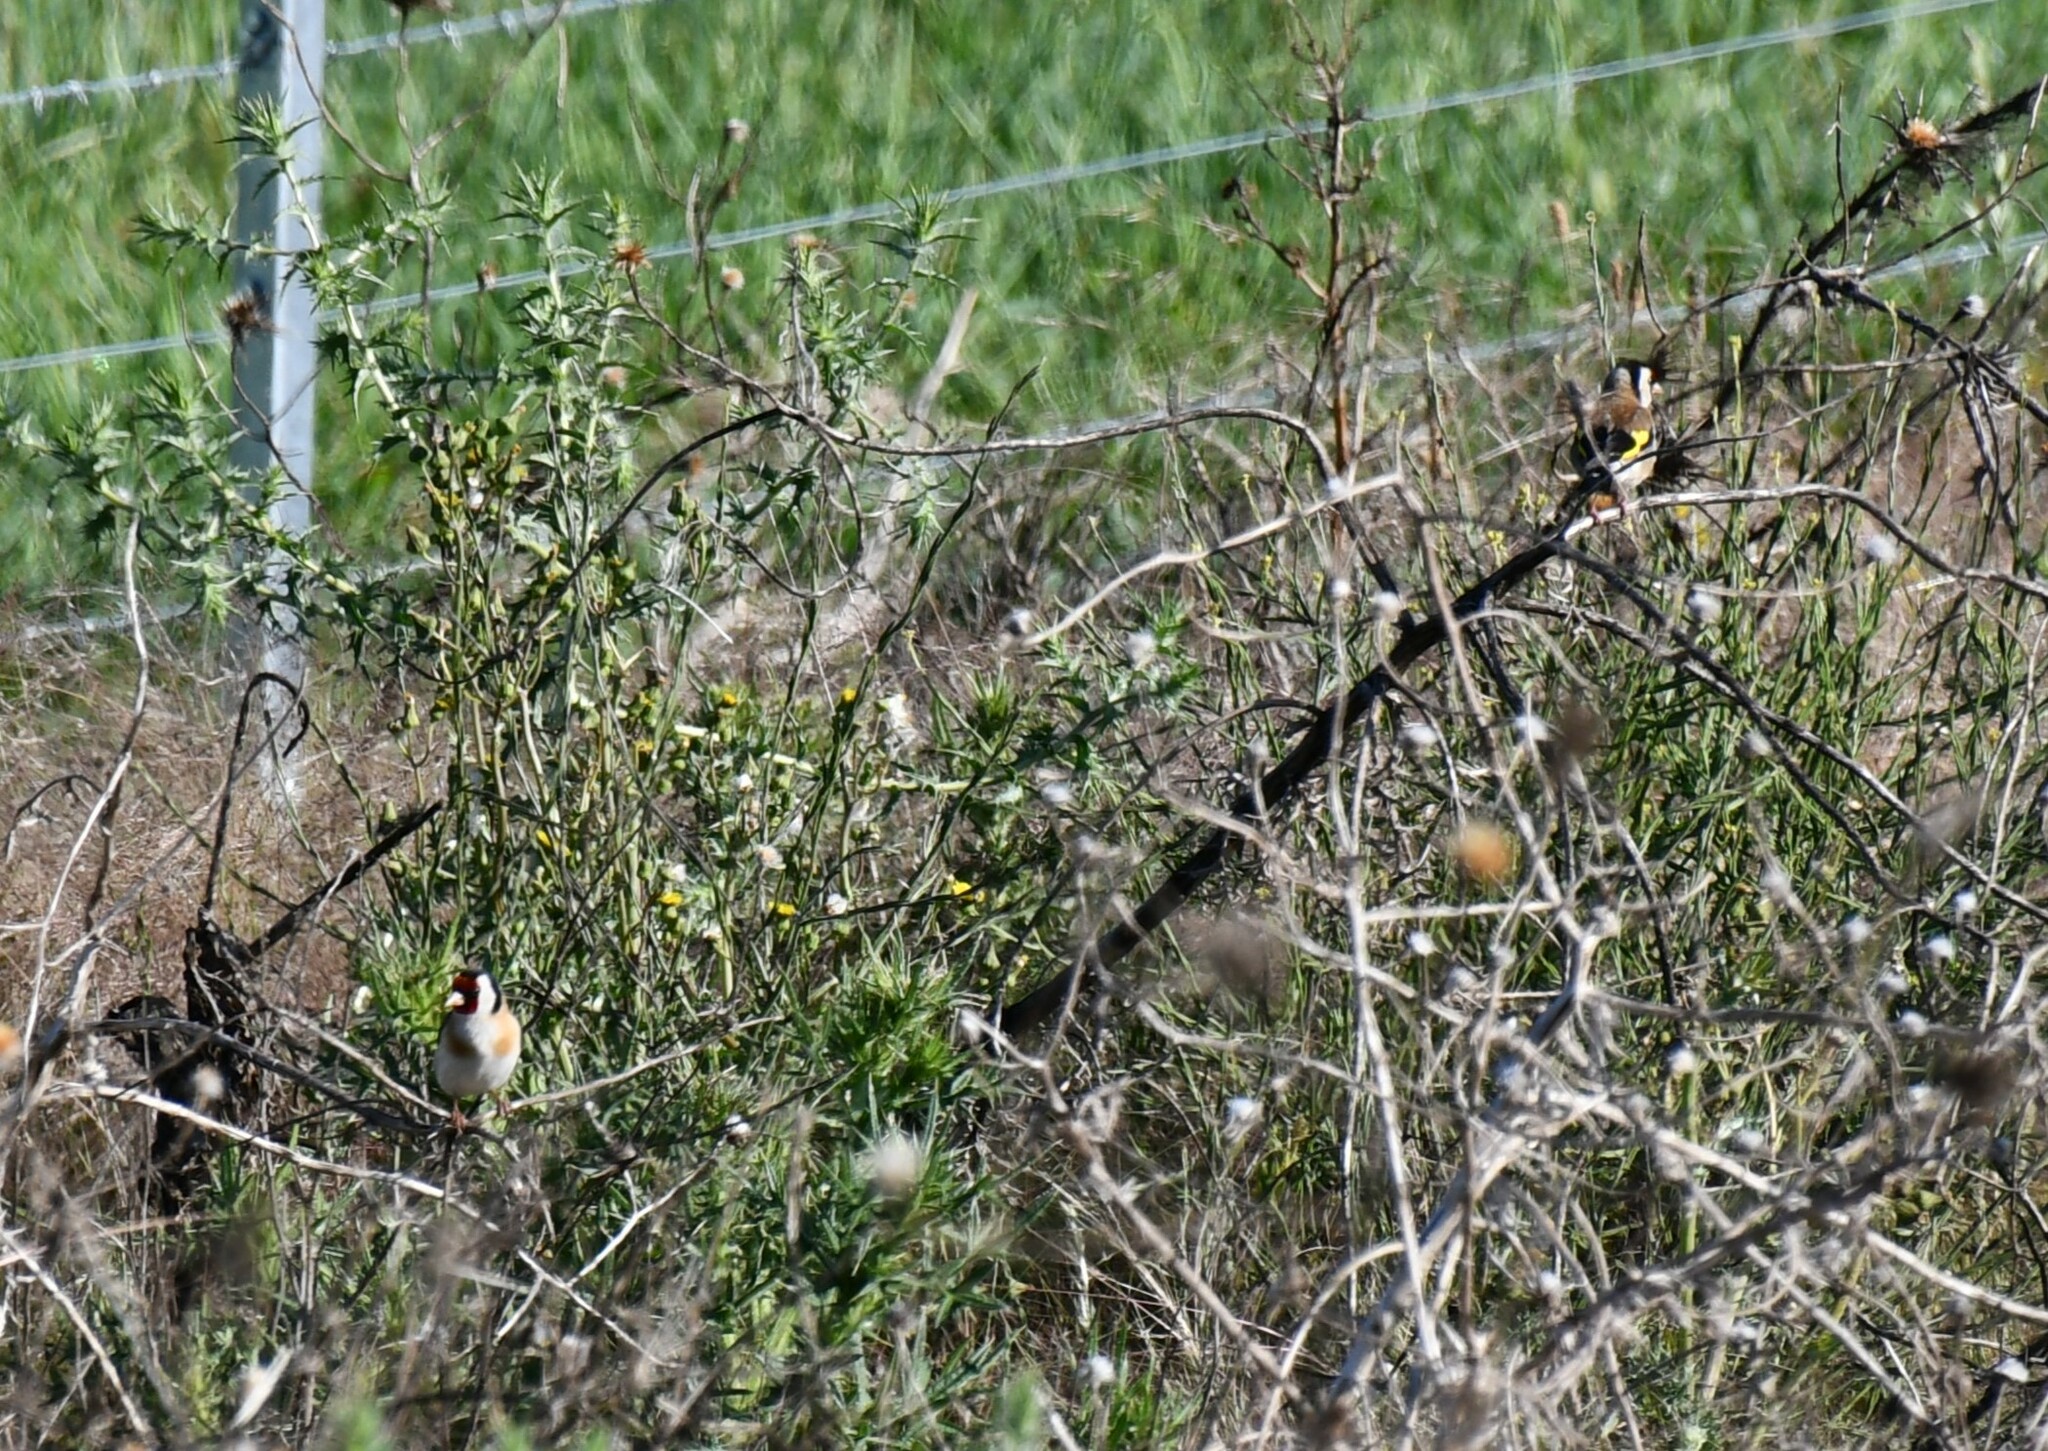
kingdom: Animalia
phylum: Chordata
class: Aves
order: Passeriformes
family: Fringillidae
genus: Carduelis
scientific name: Carduelis carduelis
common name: European goldfinch
